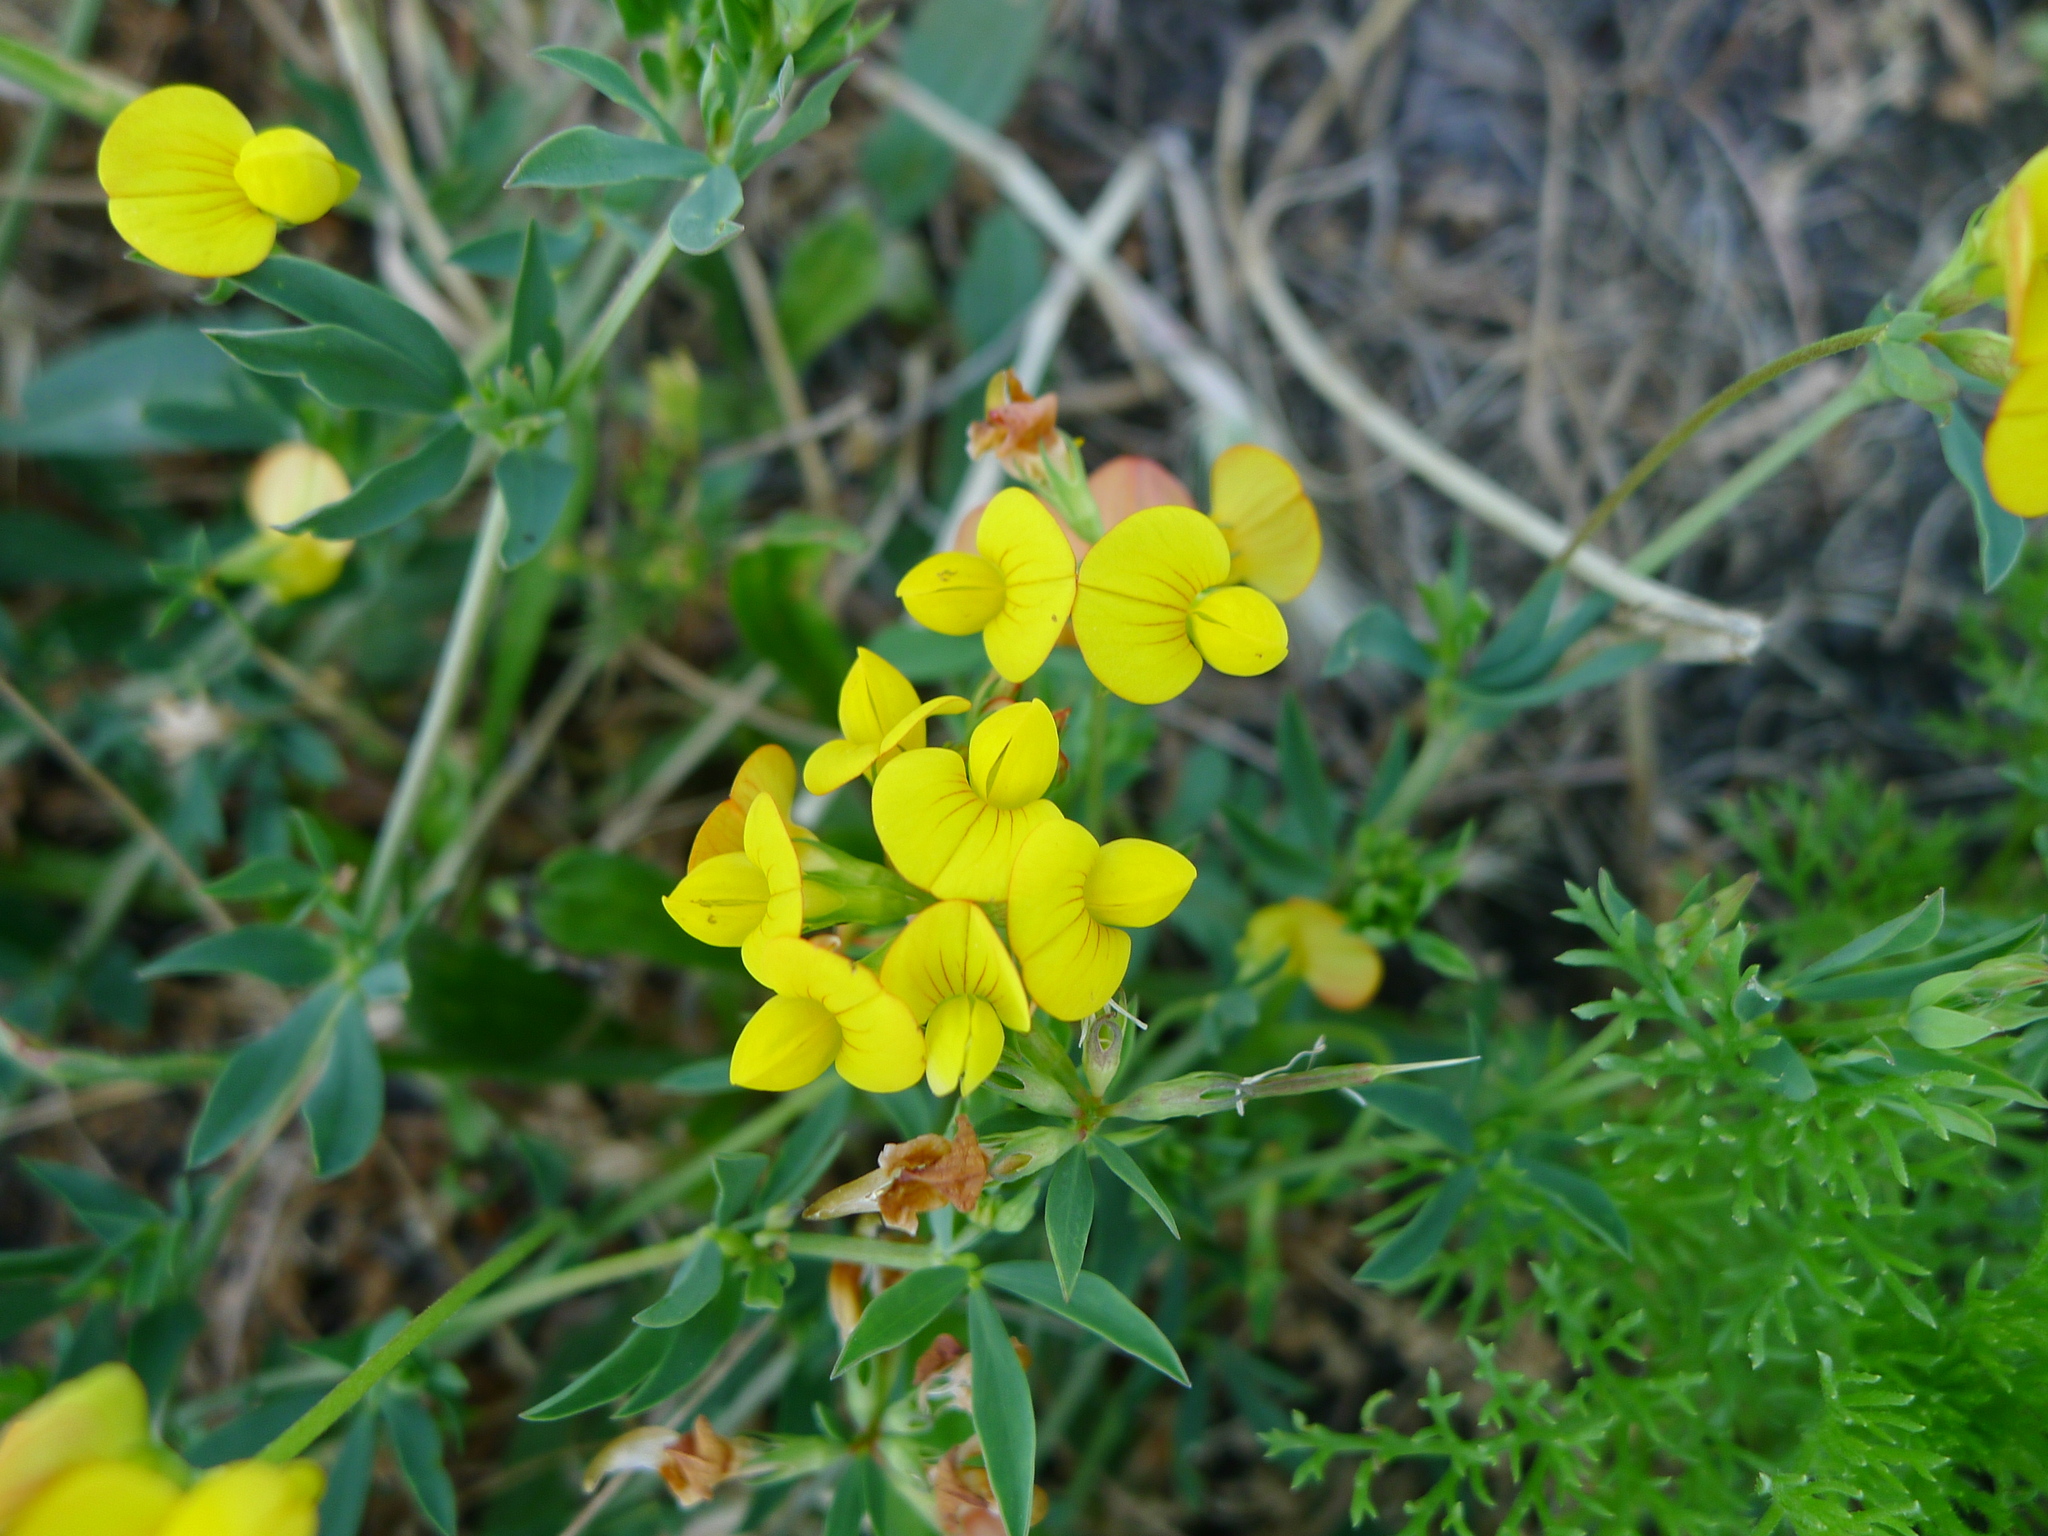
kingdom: Plantae
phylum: Tracheophyta
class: Magnoliopsida
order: Fabales
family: Fabaceae
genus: Lotus
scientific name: Lotus corniculatus
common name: Common bird's-foot-trefoil
